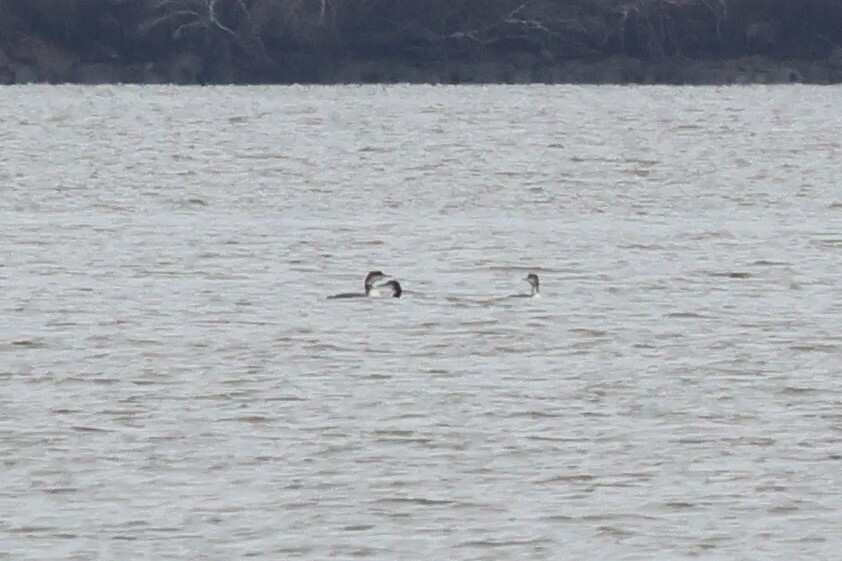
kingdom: Animalia
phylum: Chordata
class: Aves
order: Gaviiformes
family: Gaviidae
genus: Gavia
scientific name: Gavia immer
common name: Common loon
